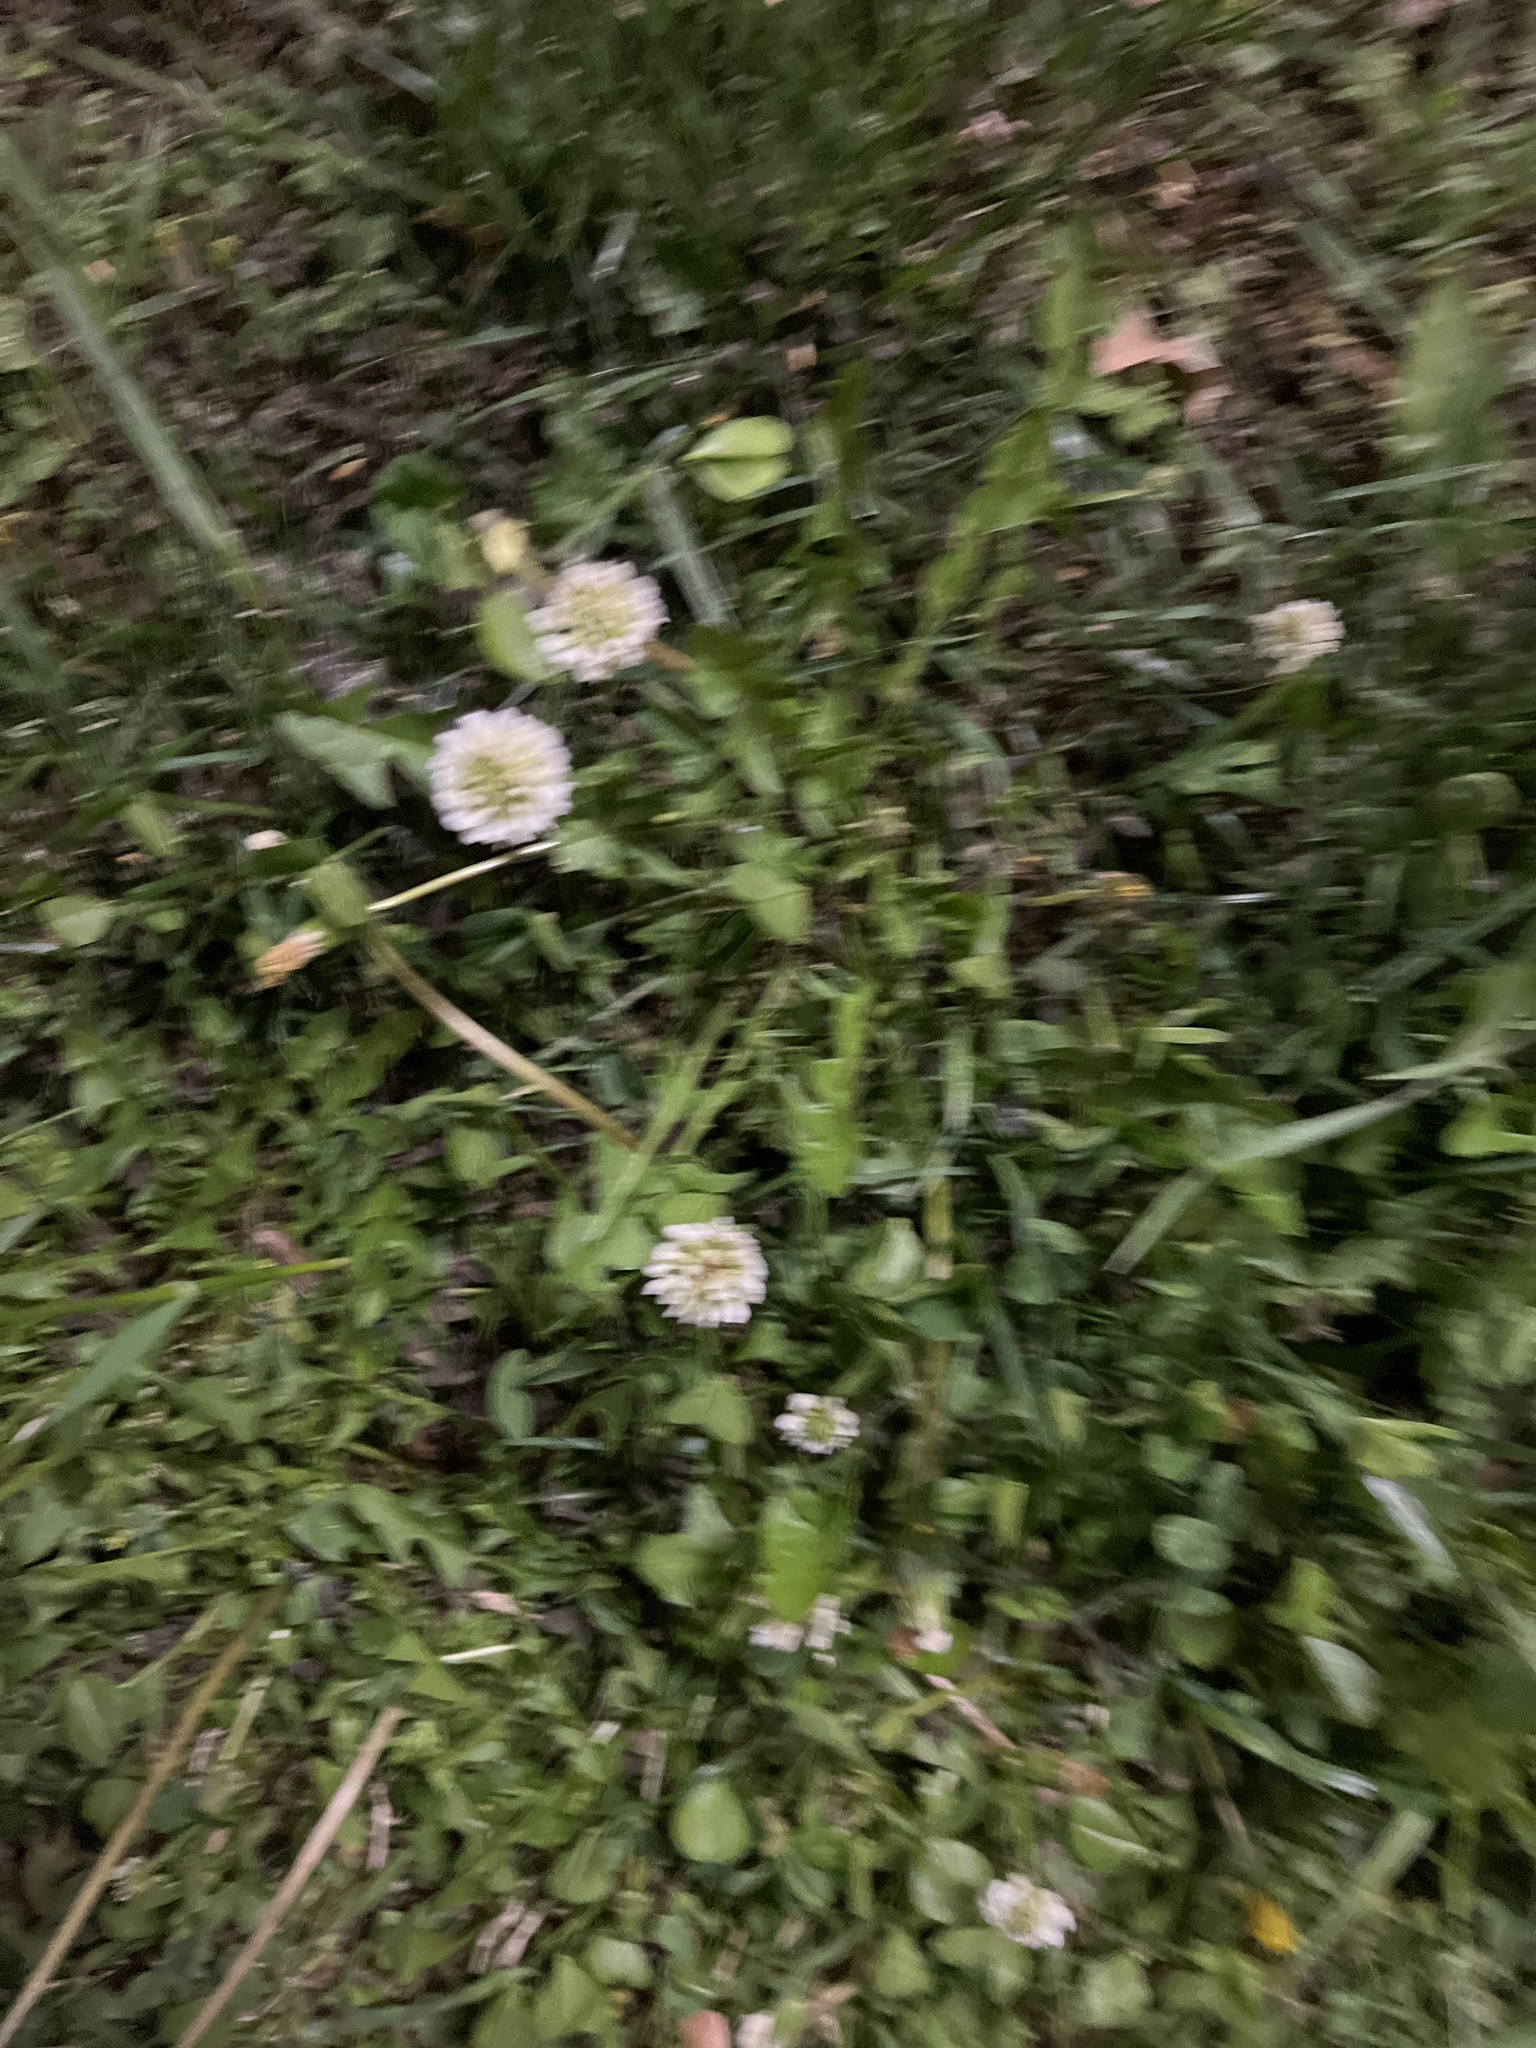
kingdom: Plantae
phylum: Tracheophyta
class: Magnoliopsida
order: Fabales
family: Fabaceae
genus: Trifolium
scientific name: Trifolium repens
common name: White clover
